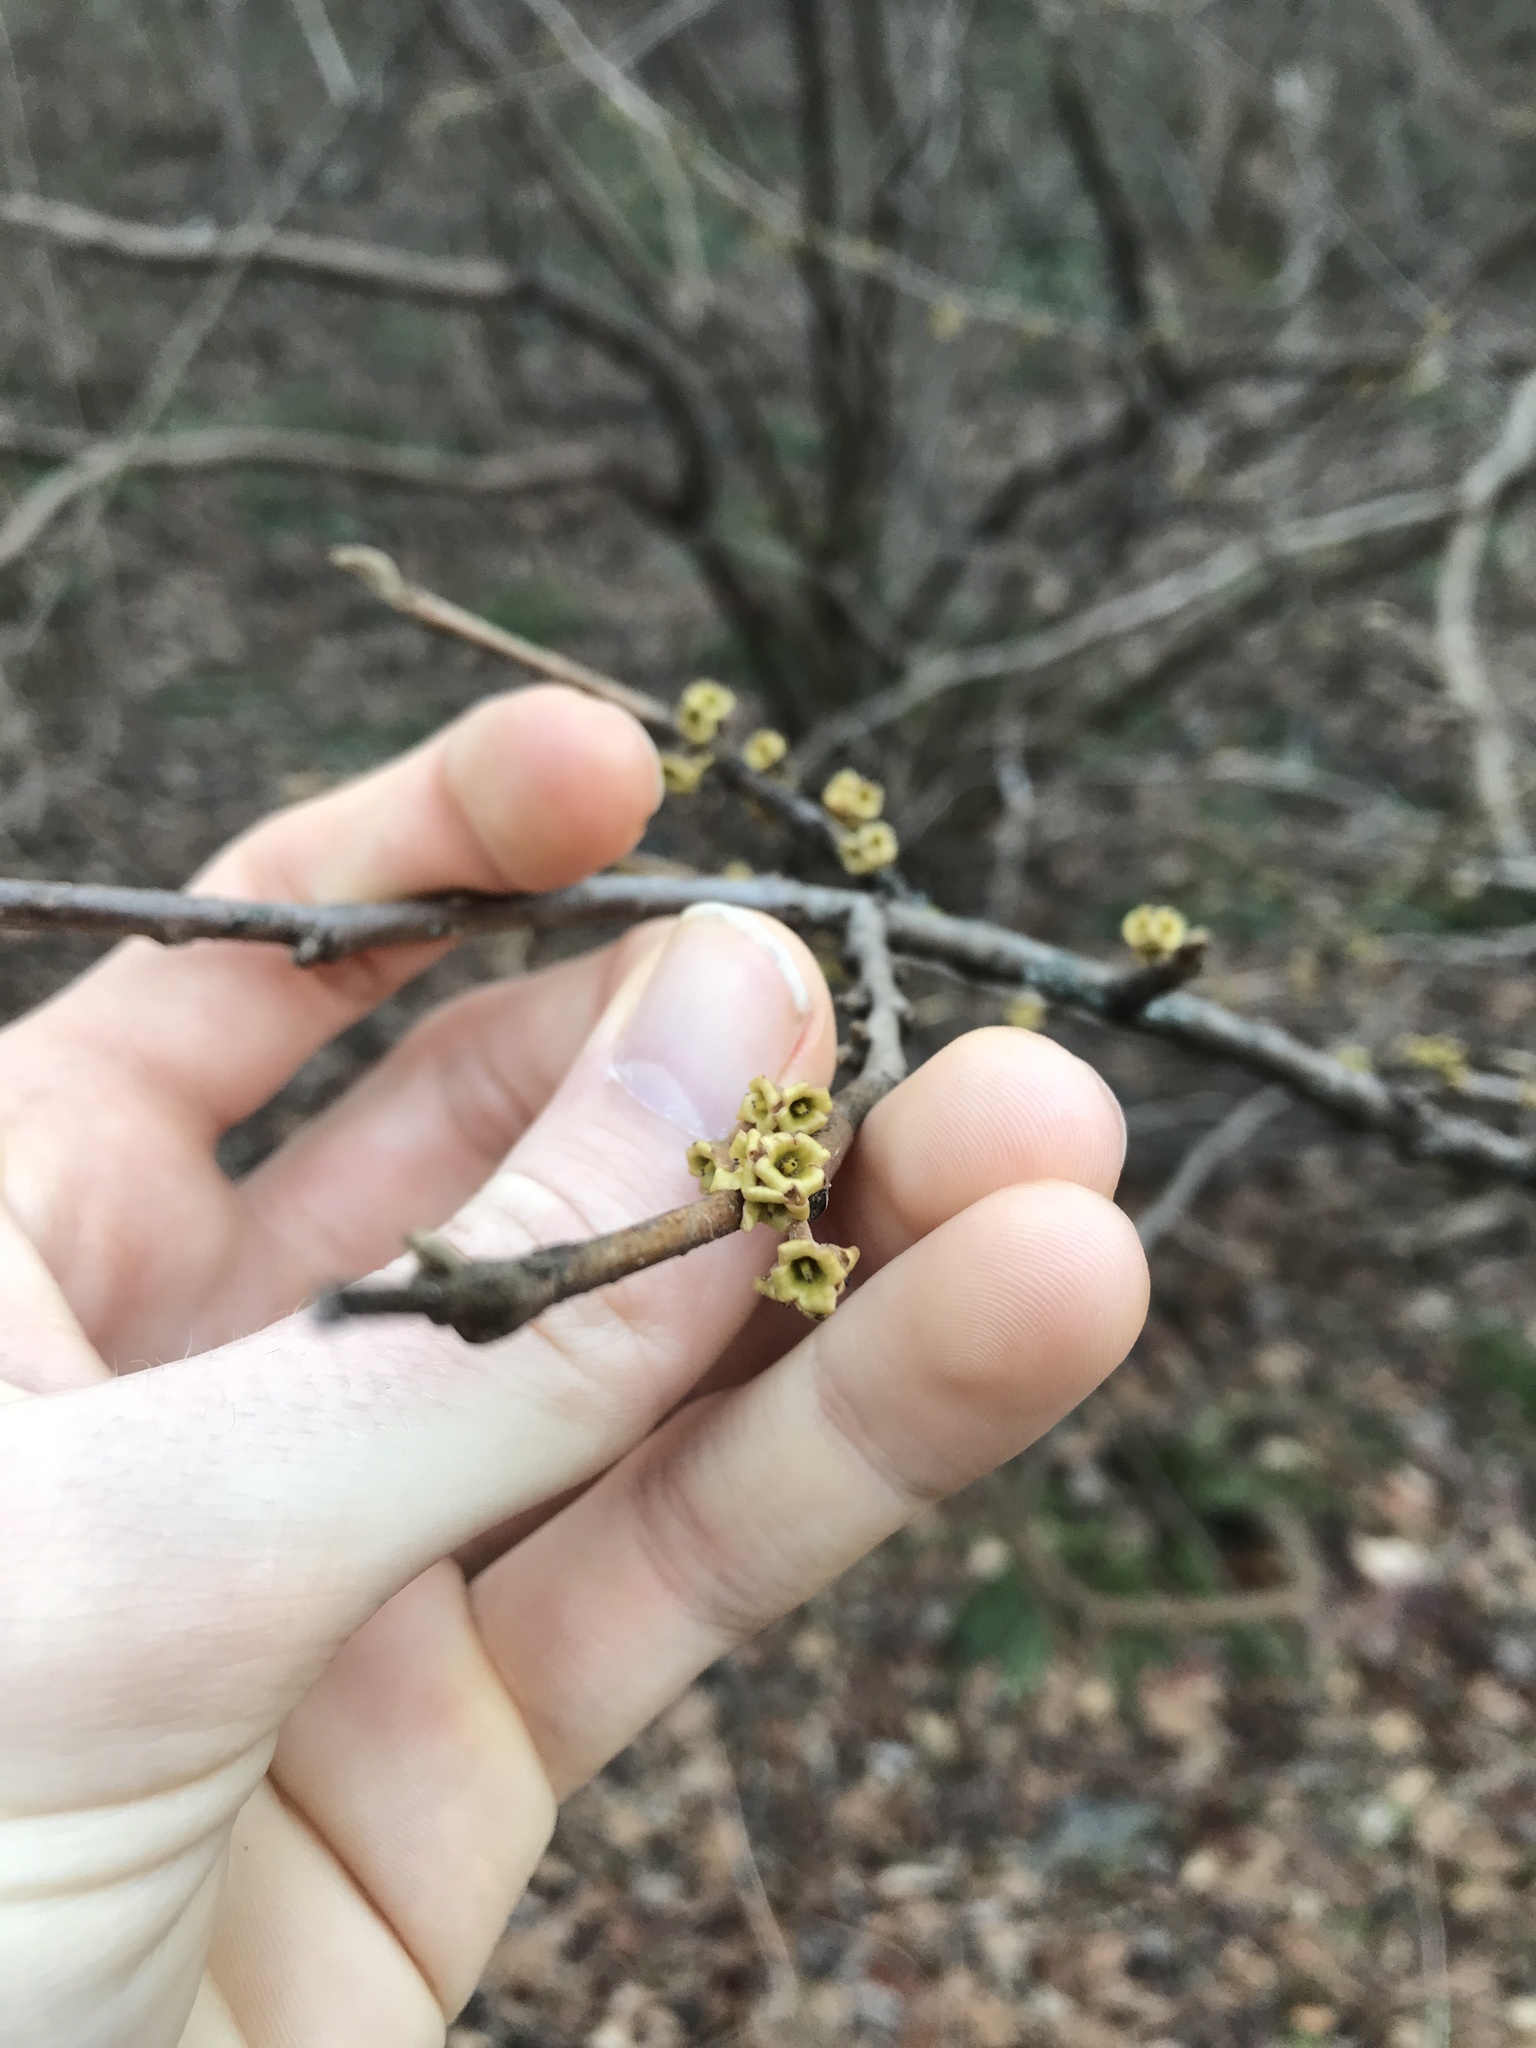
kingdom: Plantae
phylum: Tracheophyta
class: Magnoliopsida
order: Saxifragales
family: Hamamelidaceae
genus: Hamamelis
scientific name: Hamamelis virginiana
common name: Witch-hazel
